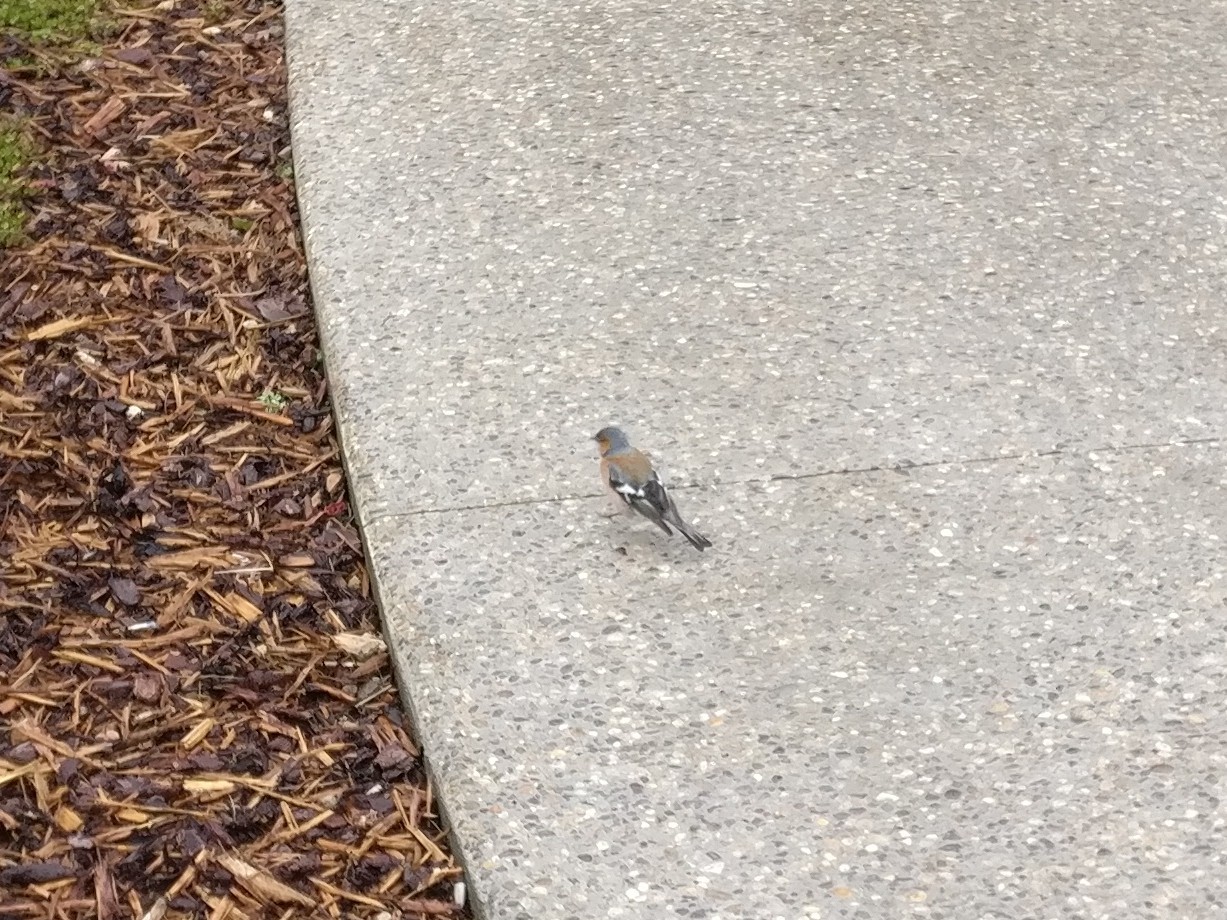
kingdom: Animalia
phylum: Chordata
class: Aves
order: Passeriformes
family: Fringillidae
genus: Fringilla
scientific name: Fringilla coelebs
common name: Common chaffinch
